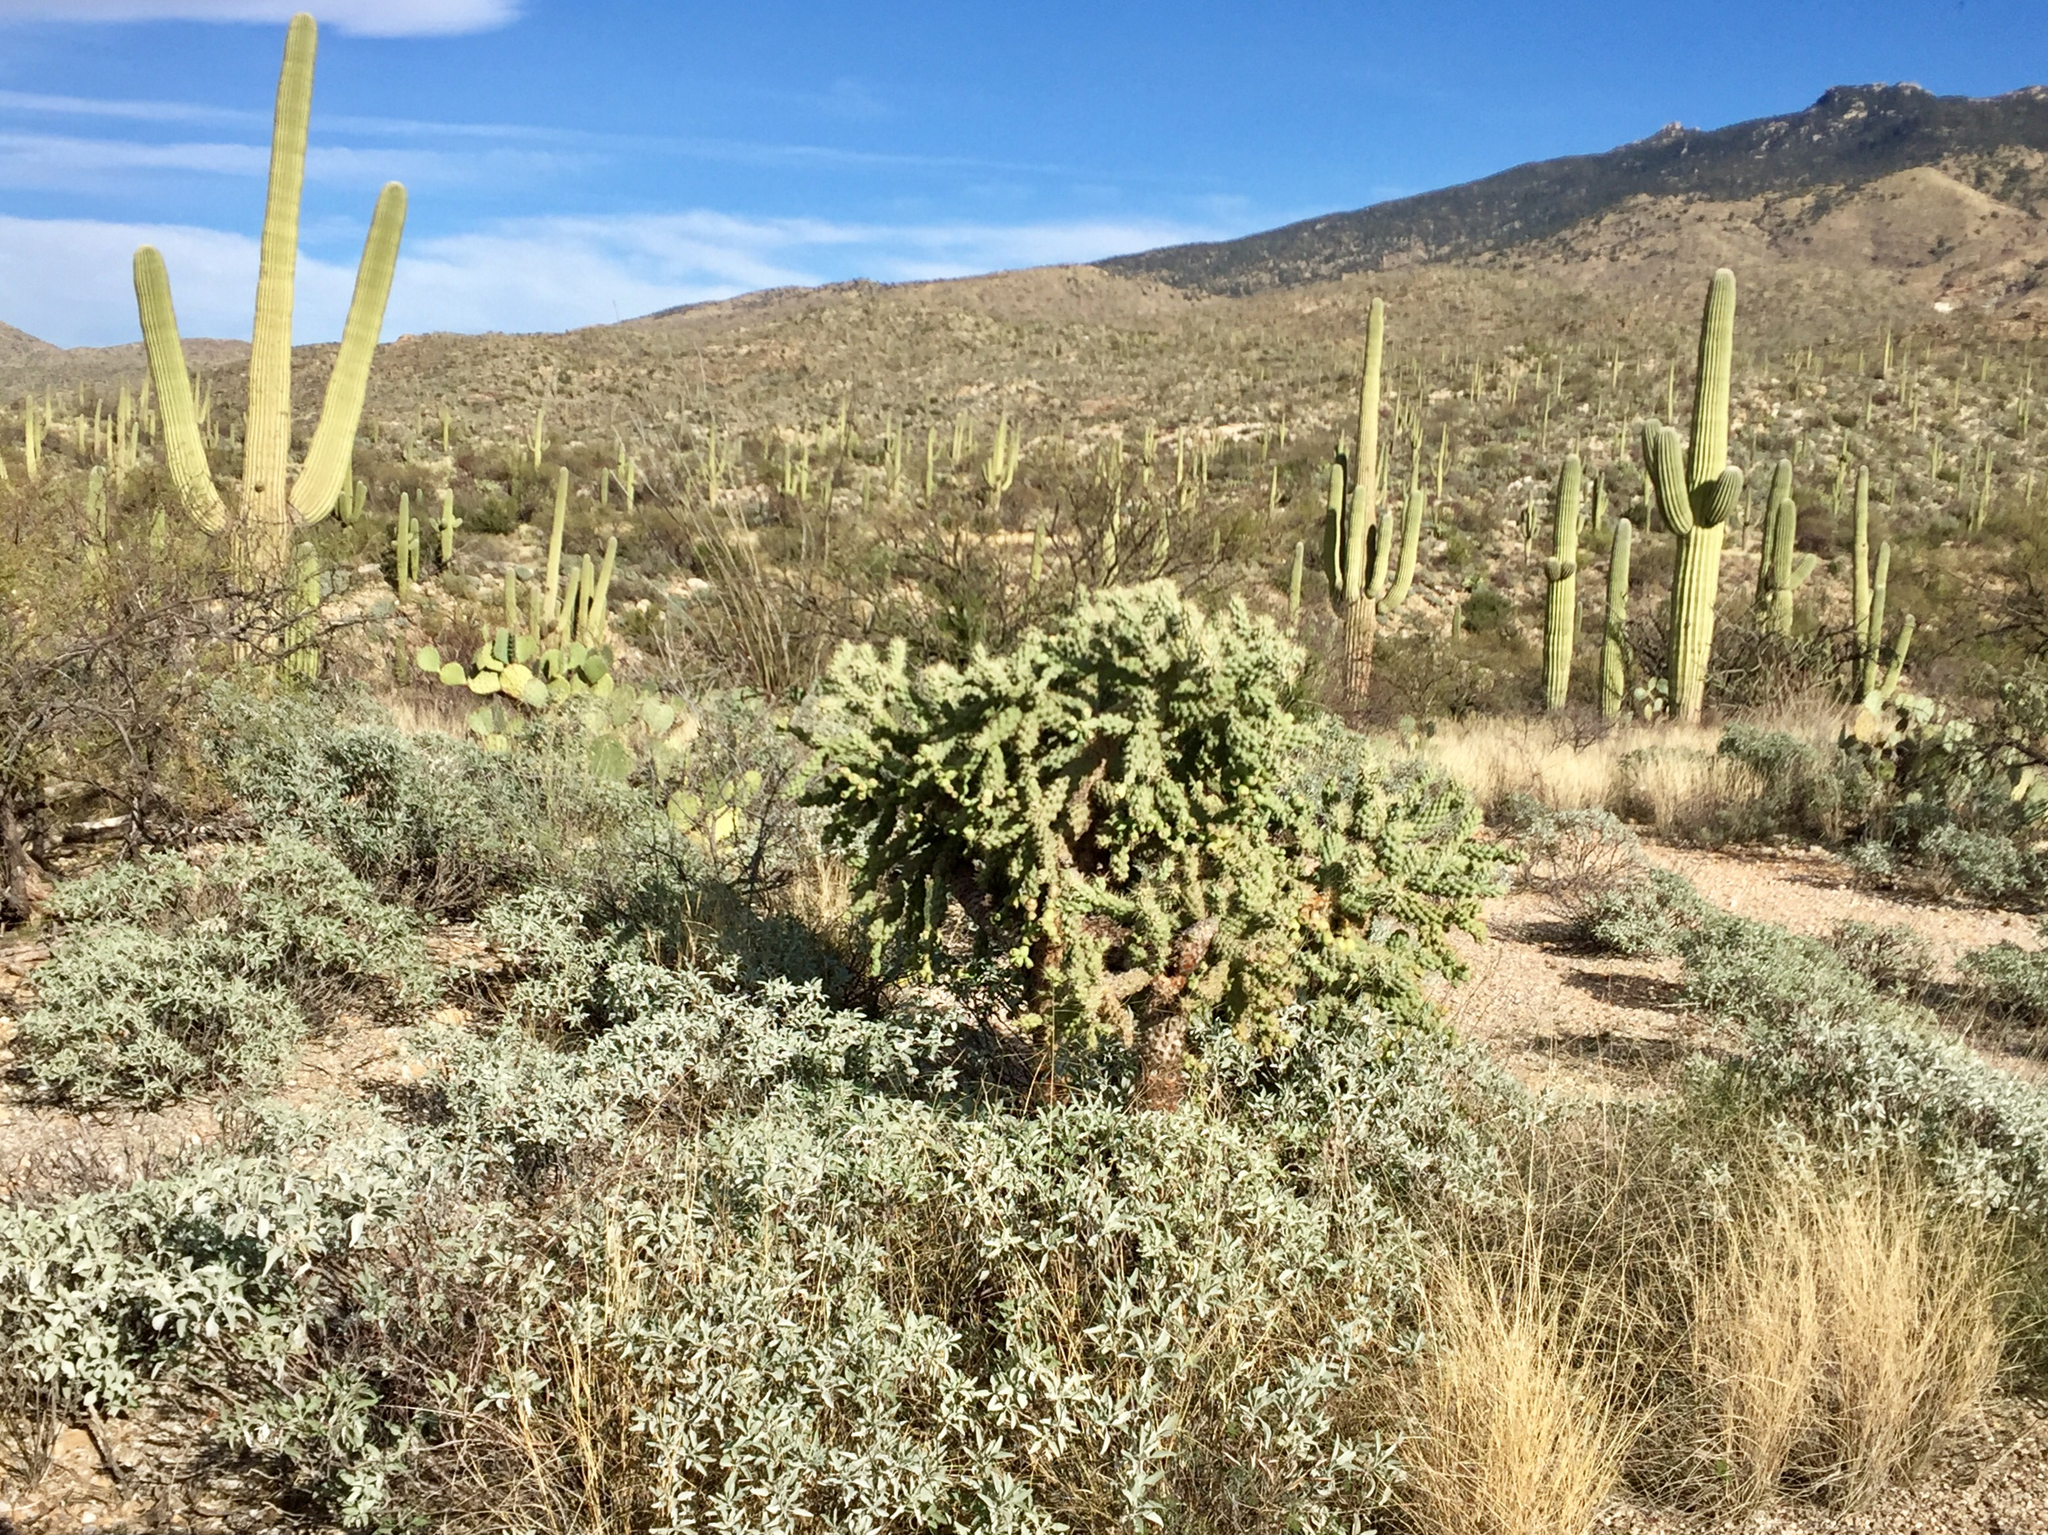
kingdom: Plantae
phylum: Tracheophyta
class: Magnoliopsida
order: Caryophyllales
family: Cactaceae
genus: Cylindropuntia
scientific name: Cylindropuntia fulgida
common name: Jumping cholla
